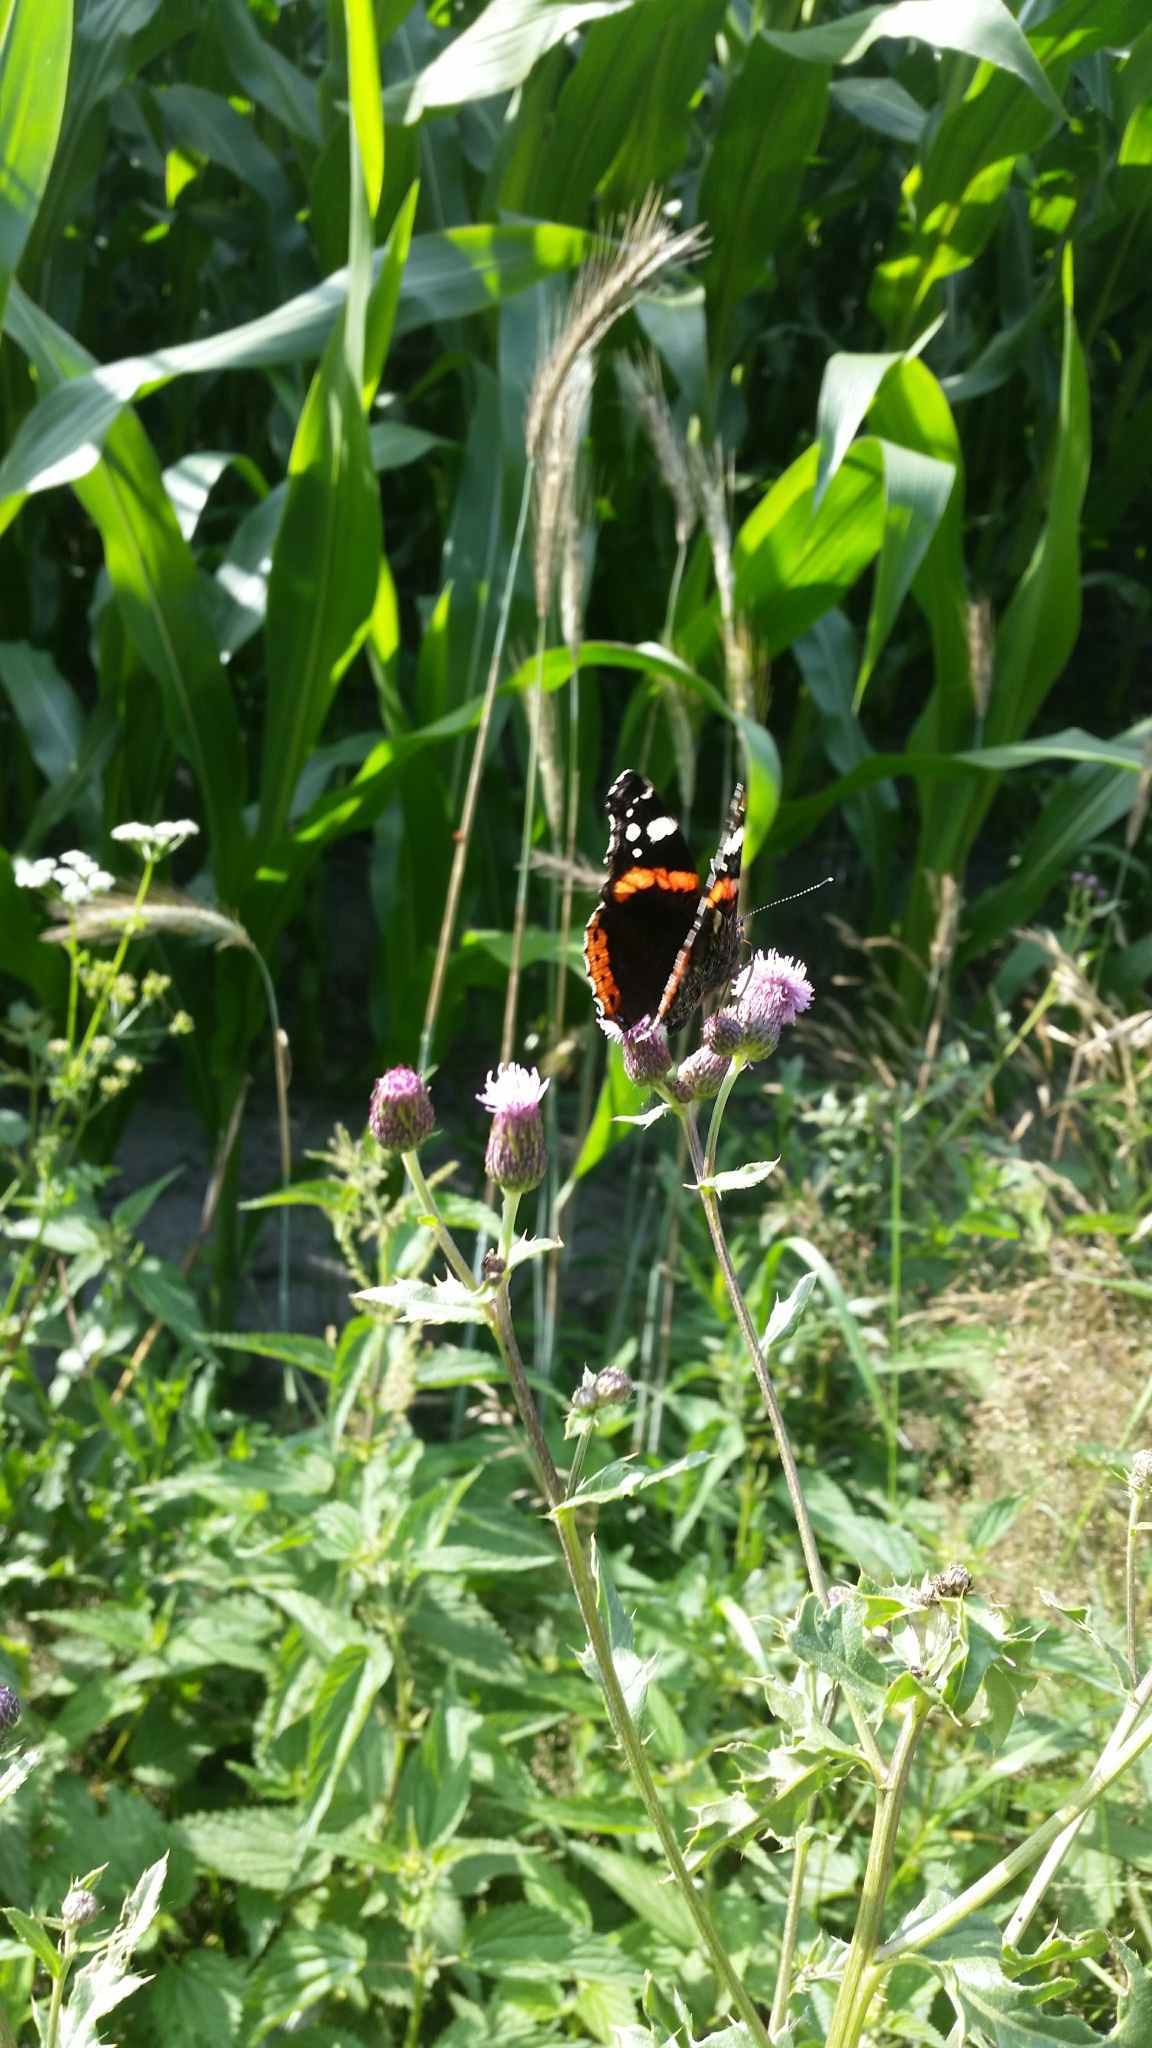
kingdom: Animalia
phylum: Arthropoda
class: Insecta
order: Lepidoptera
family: Nymphalidae
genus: Vanessa
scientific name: Vanessa atalanta
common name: Red admiral
